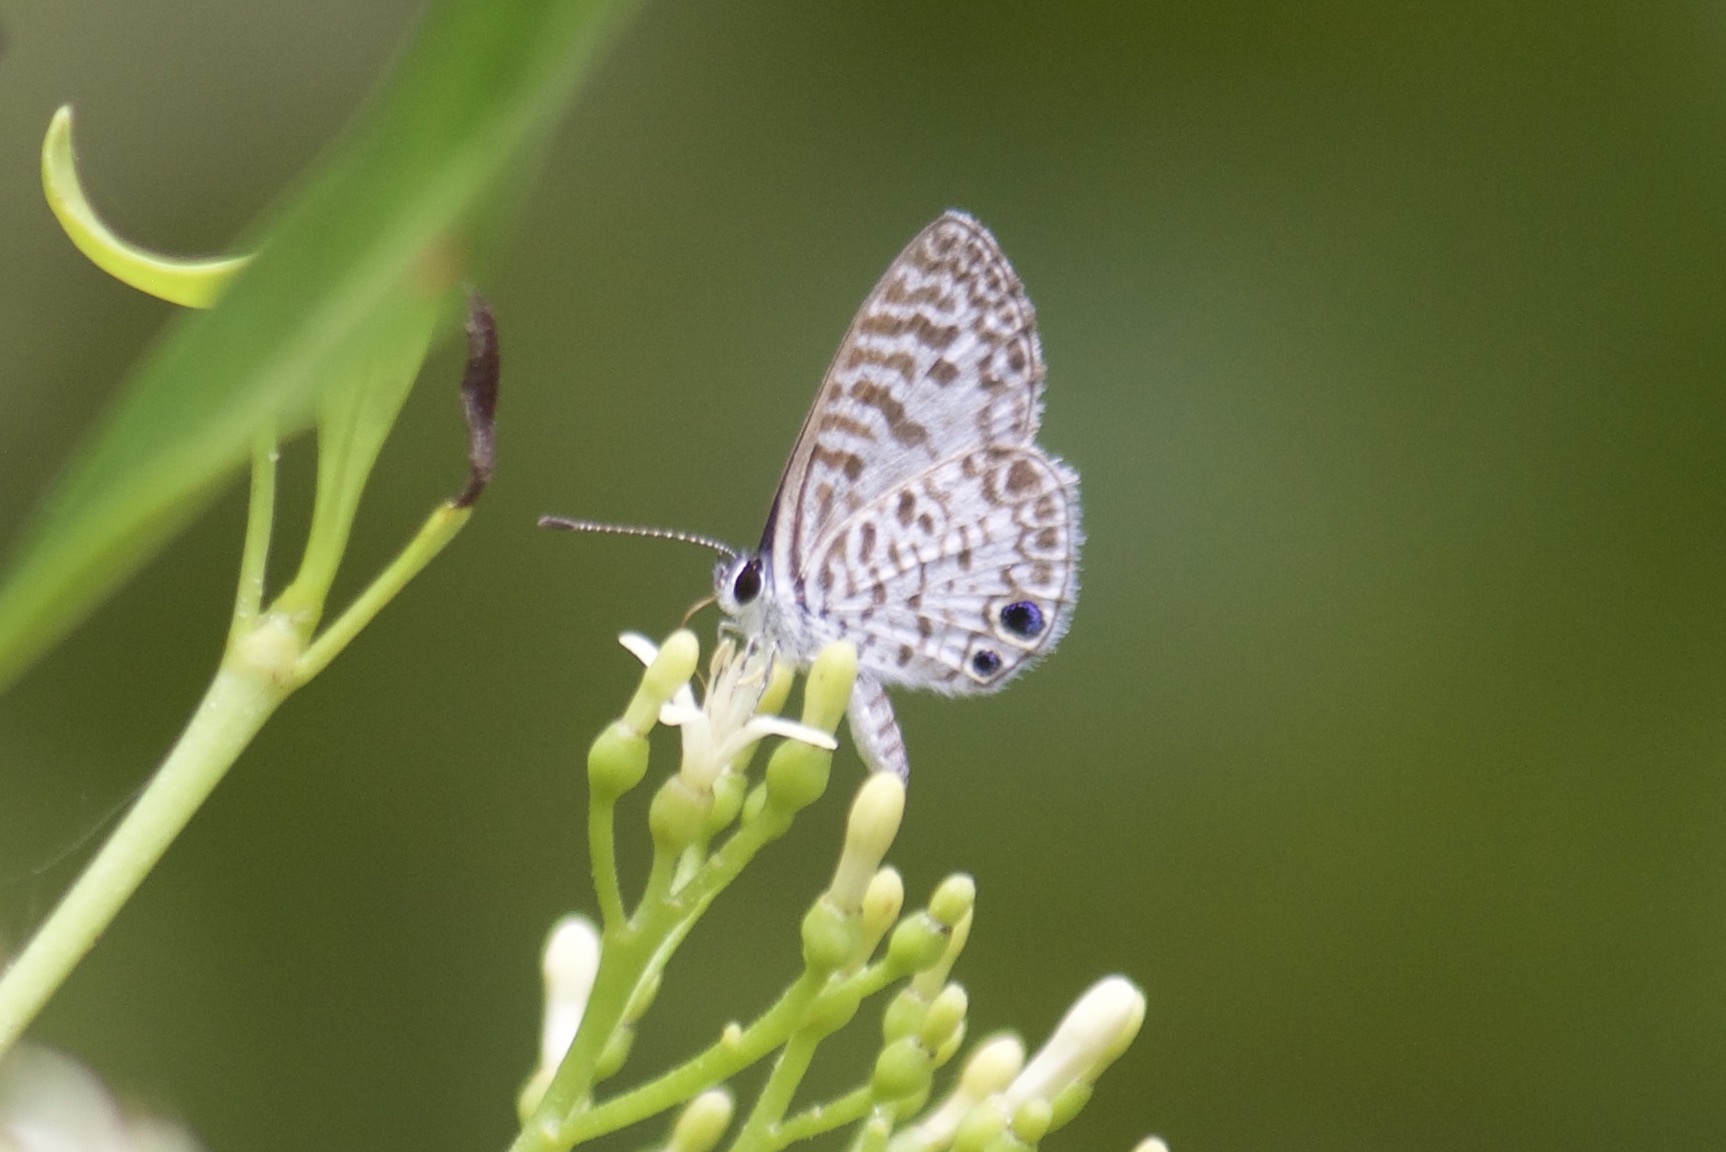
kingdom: Animalia
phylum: Arthropoda
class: Insecta
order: Lepidoptera
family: Lycaenidae
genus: Leptotes
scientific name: Leptotes cassius
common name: Cassius blue
